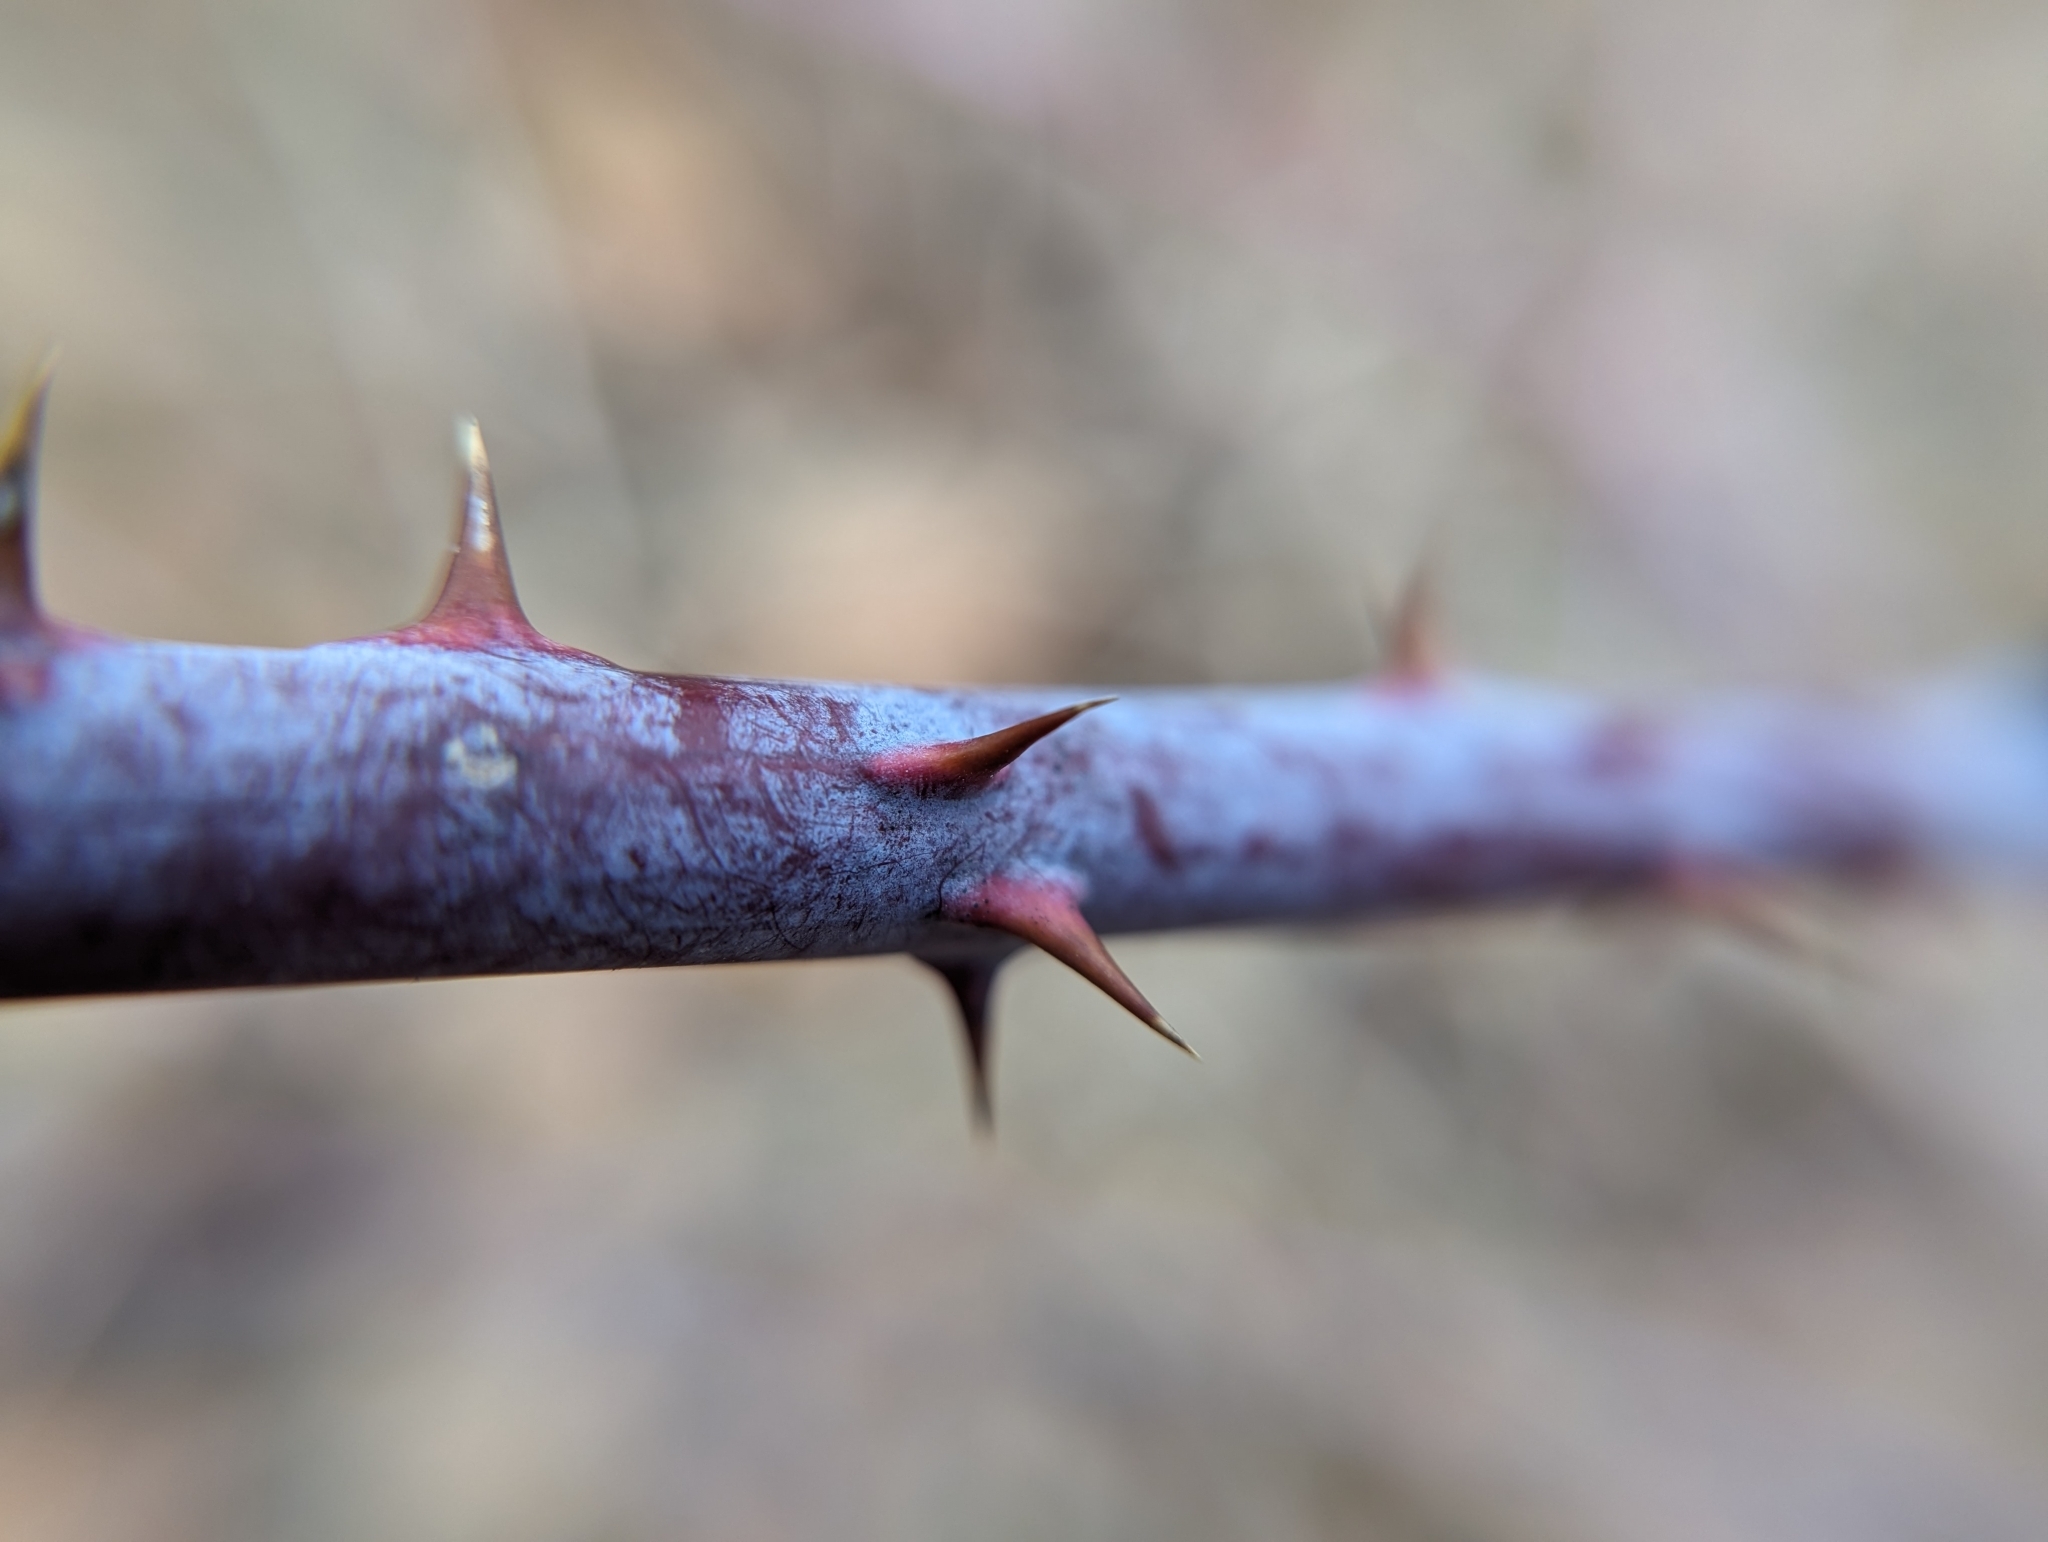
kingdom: Plantae
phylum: Tracheophyta
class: Magnoliopsida
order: Rosales
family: Rosaceae
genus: Rubus
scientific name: Rubus occidentalis
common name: Black raspberry
